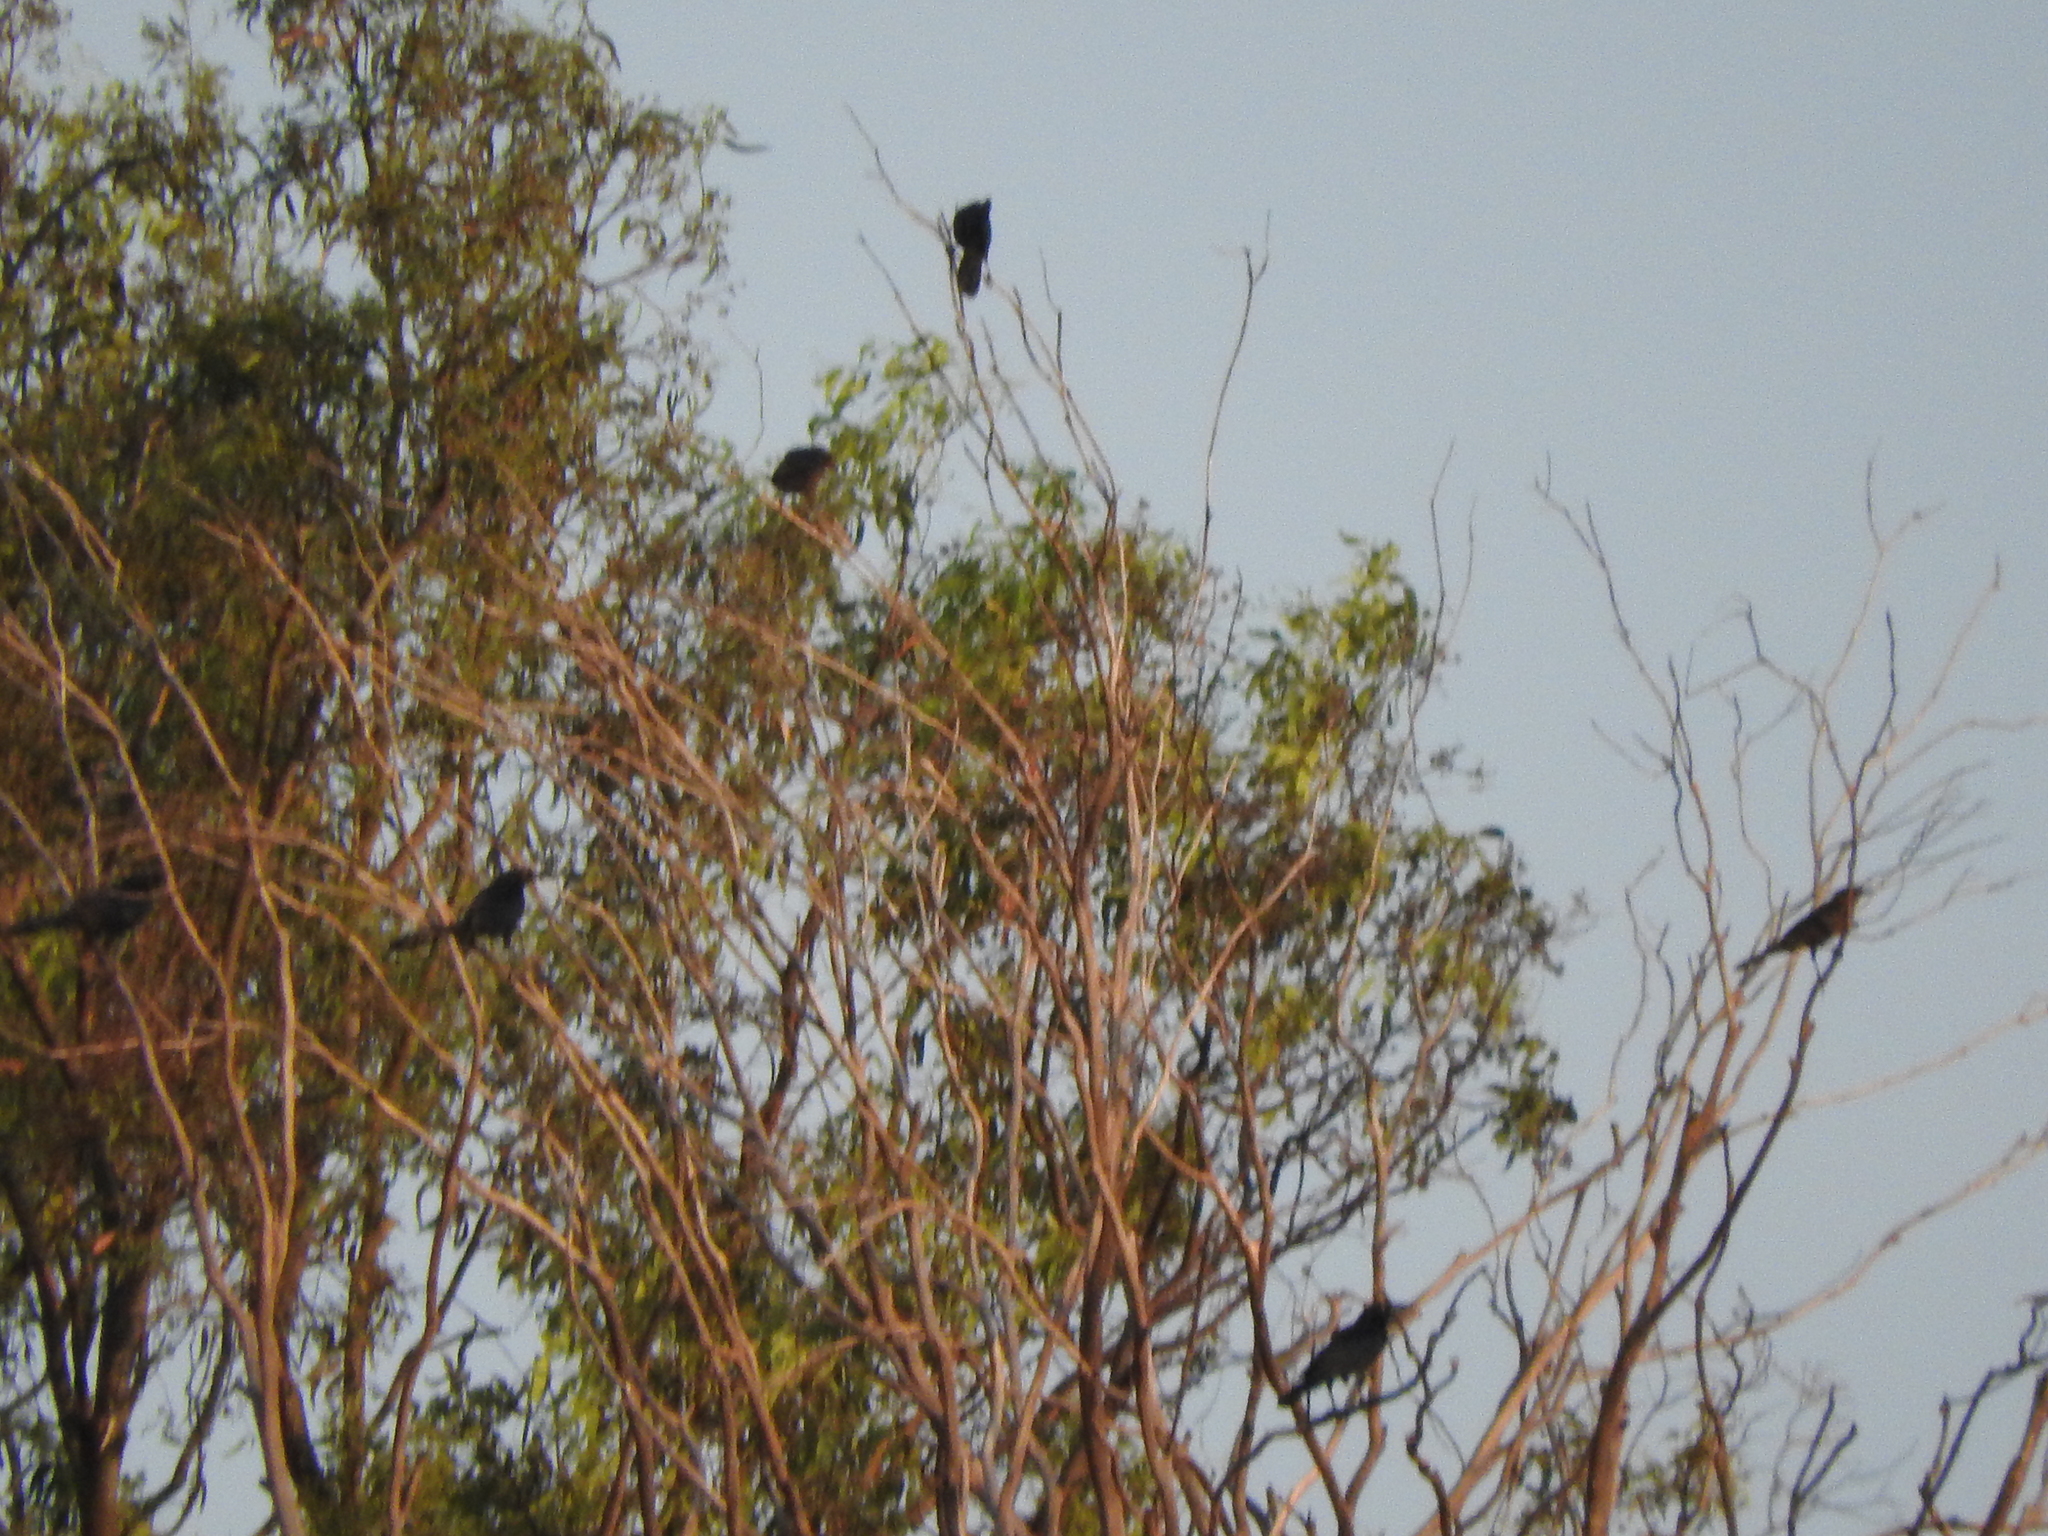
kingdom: Animalia
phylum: Chordata
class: Aves
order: Passeriformes
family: Icteridae
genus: Quiscalus
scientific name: Quiscalus mexicanus
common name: Great-tailed grackle
